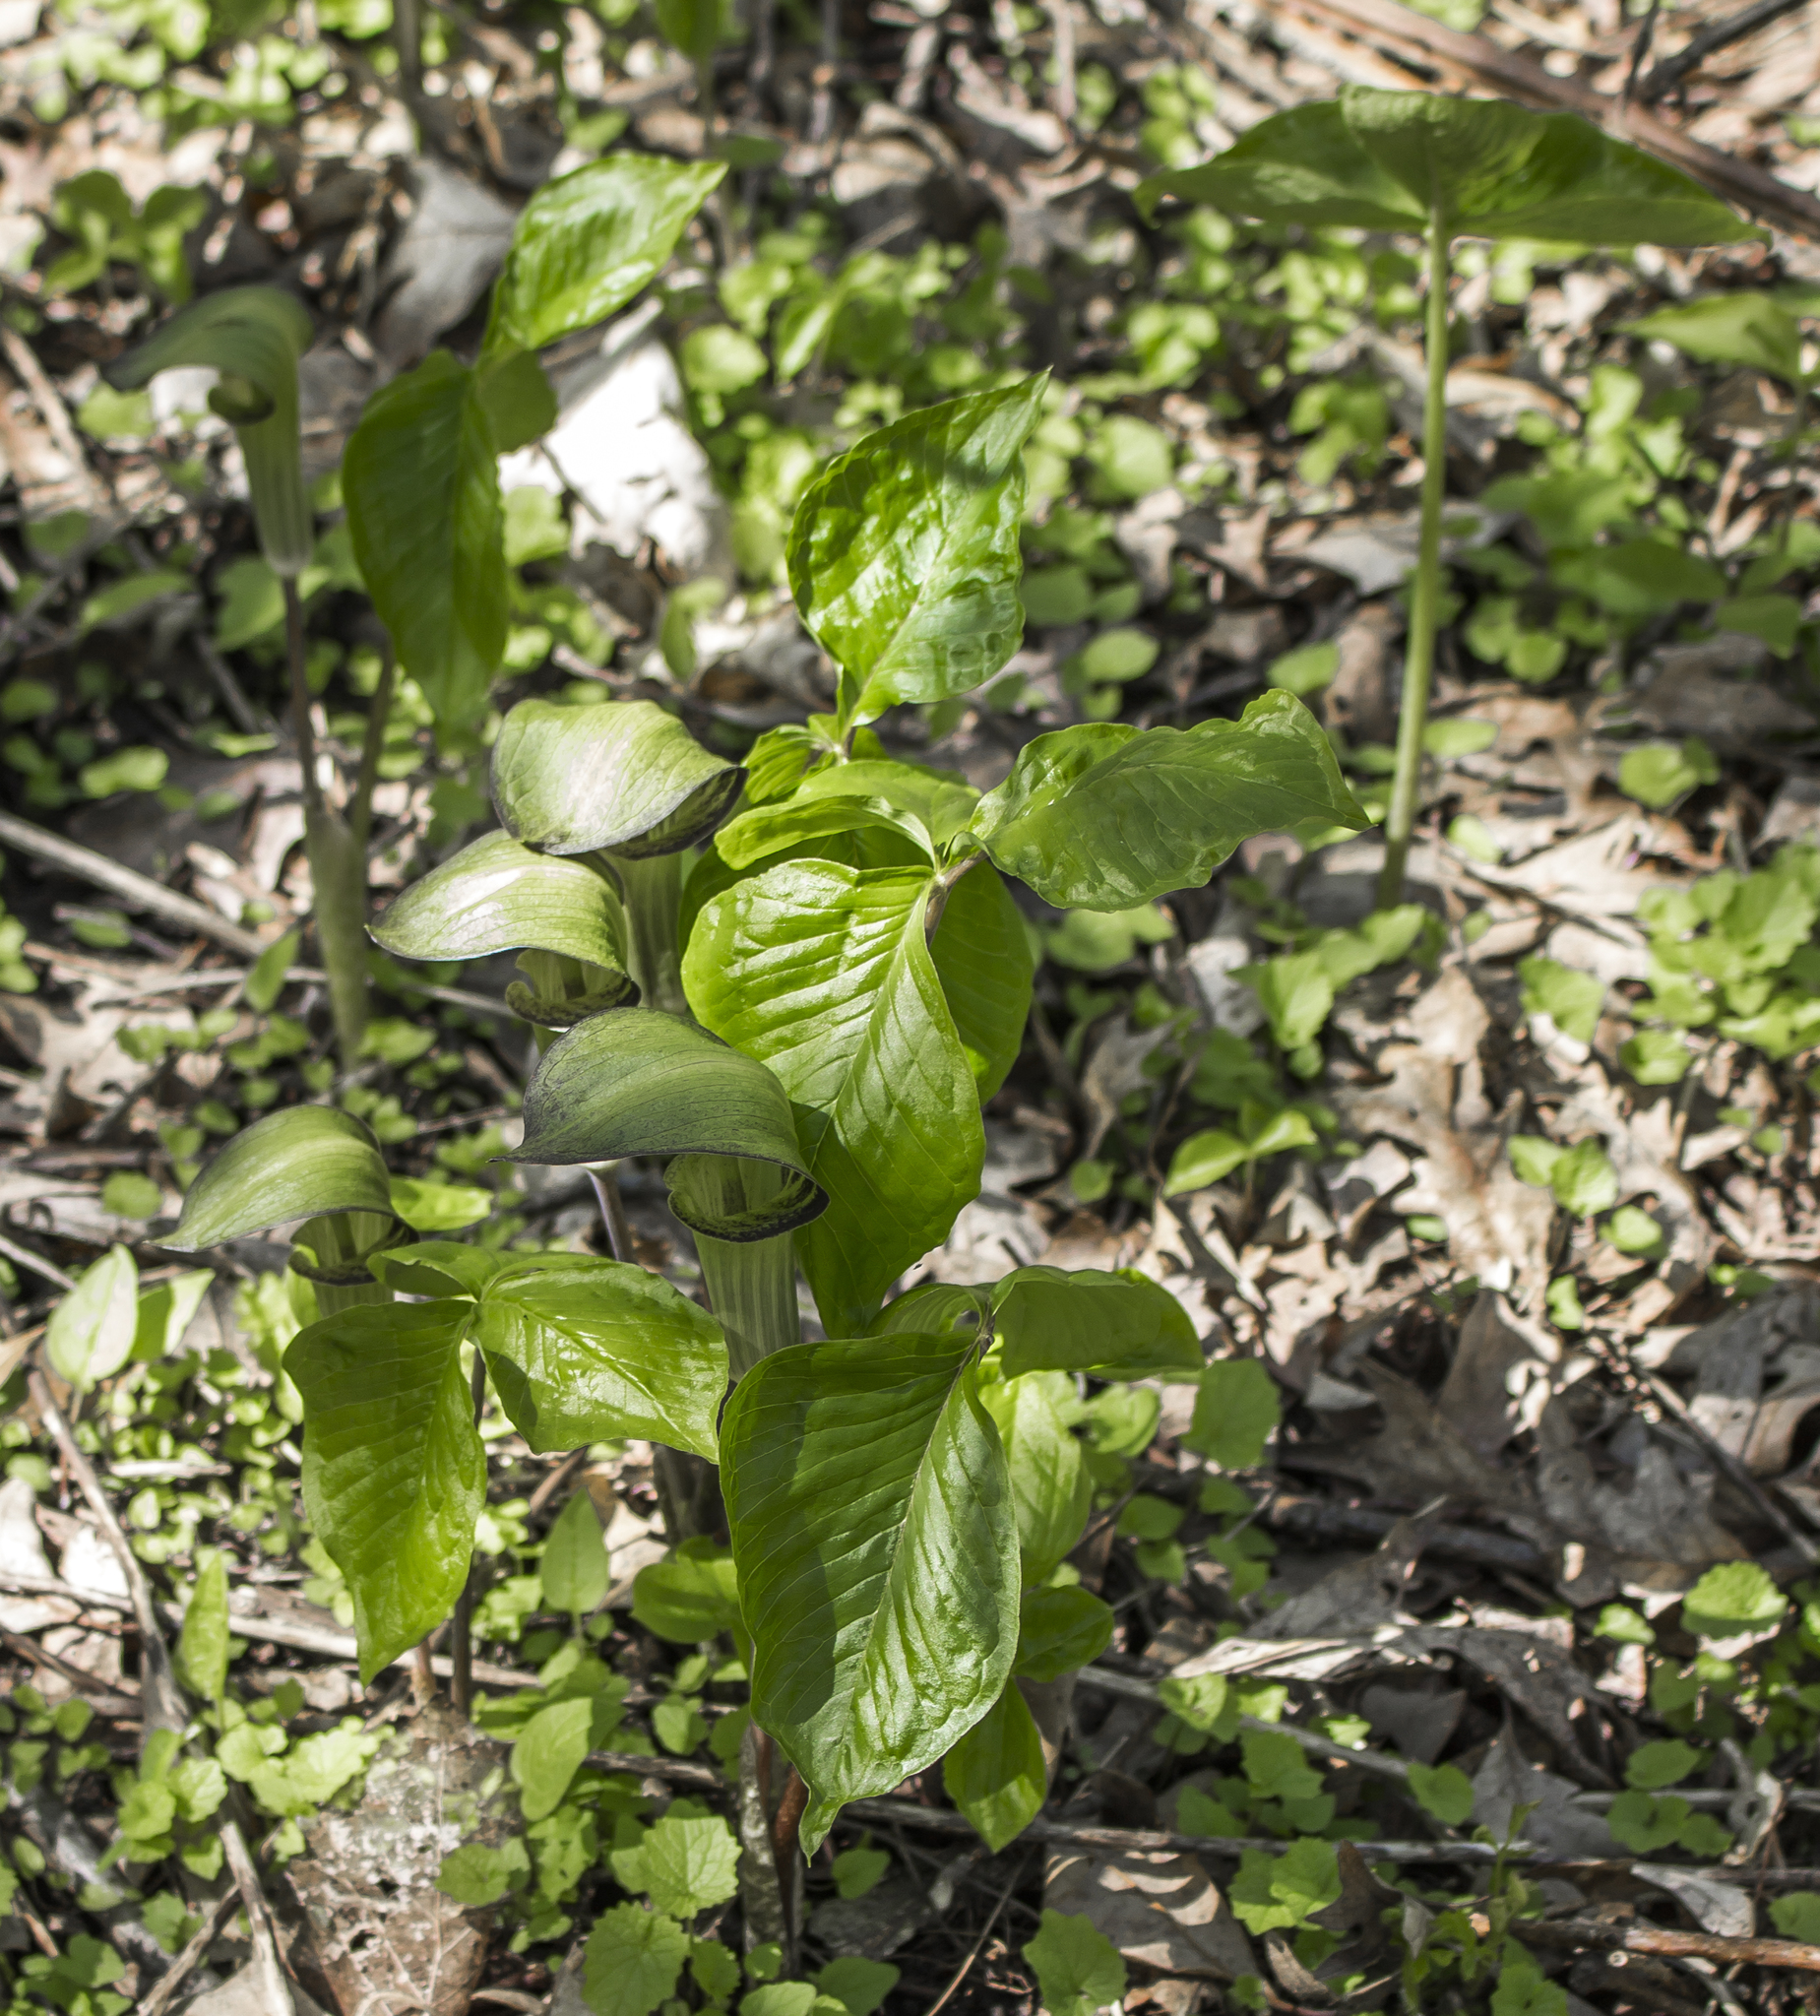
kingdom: Plantae
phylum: Tracheophyta
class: Liliopsida
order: Alismatales
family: Araceae
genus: Arisaema
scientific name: Arisaema triphyllum
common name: Jack-in-the-pulpit
